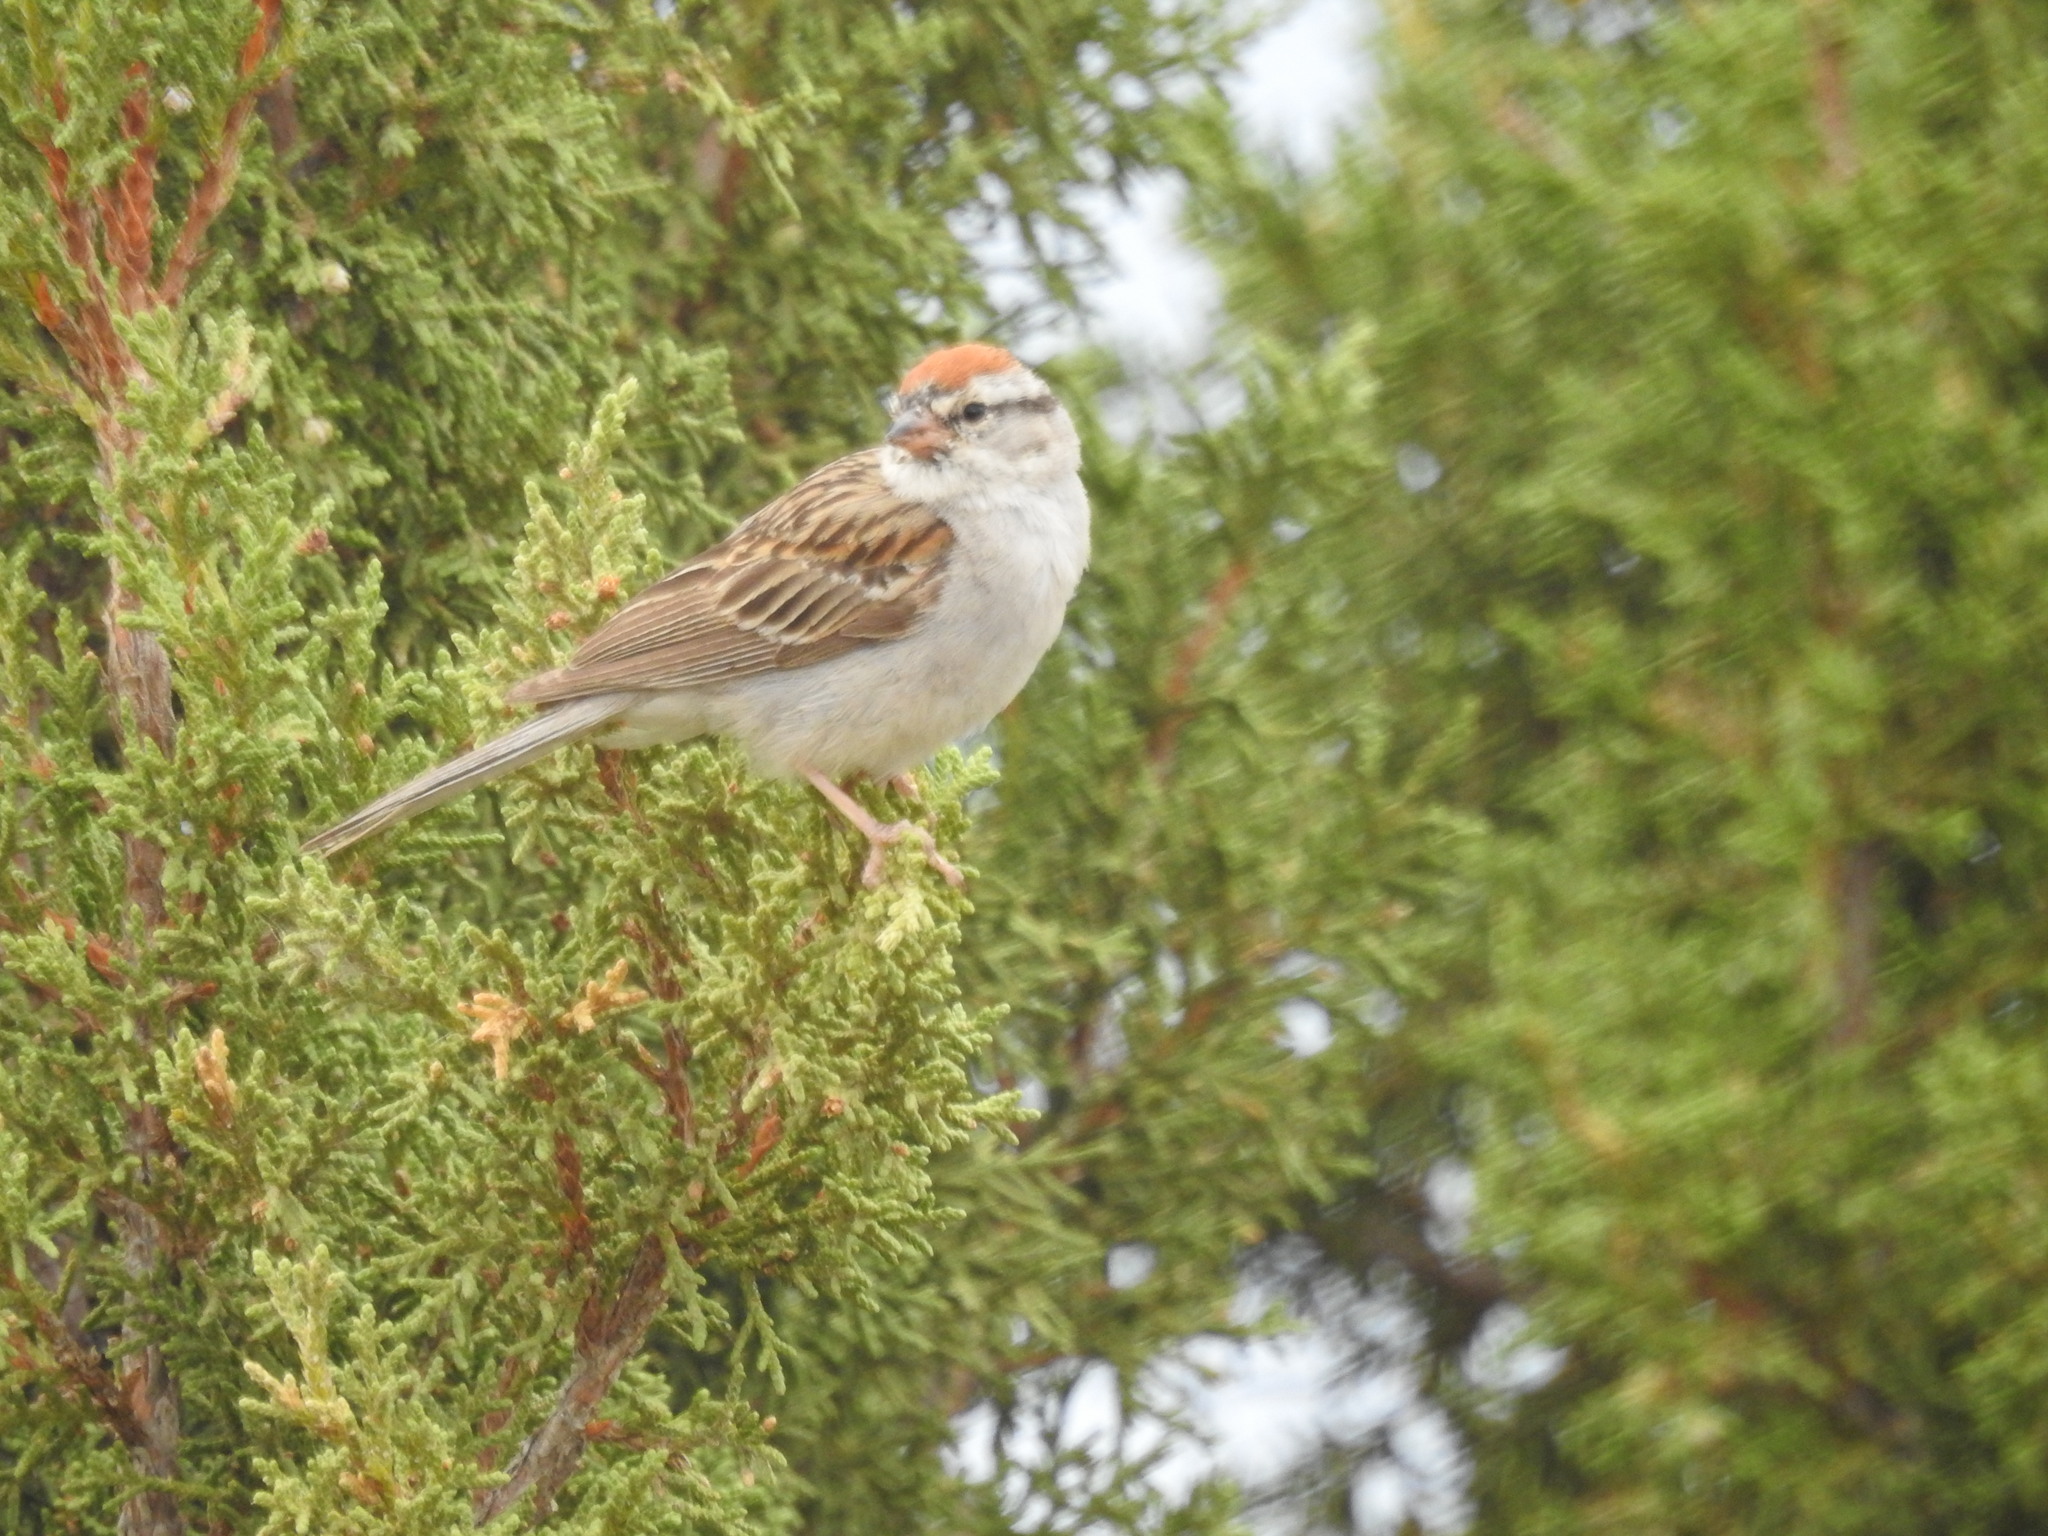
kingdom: Animalia
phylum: Chordata
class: Aves
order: Passeriformes
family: Passerellidae
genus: Spizella
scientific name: Spizella passerina
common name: Chipping sparrow
